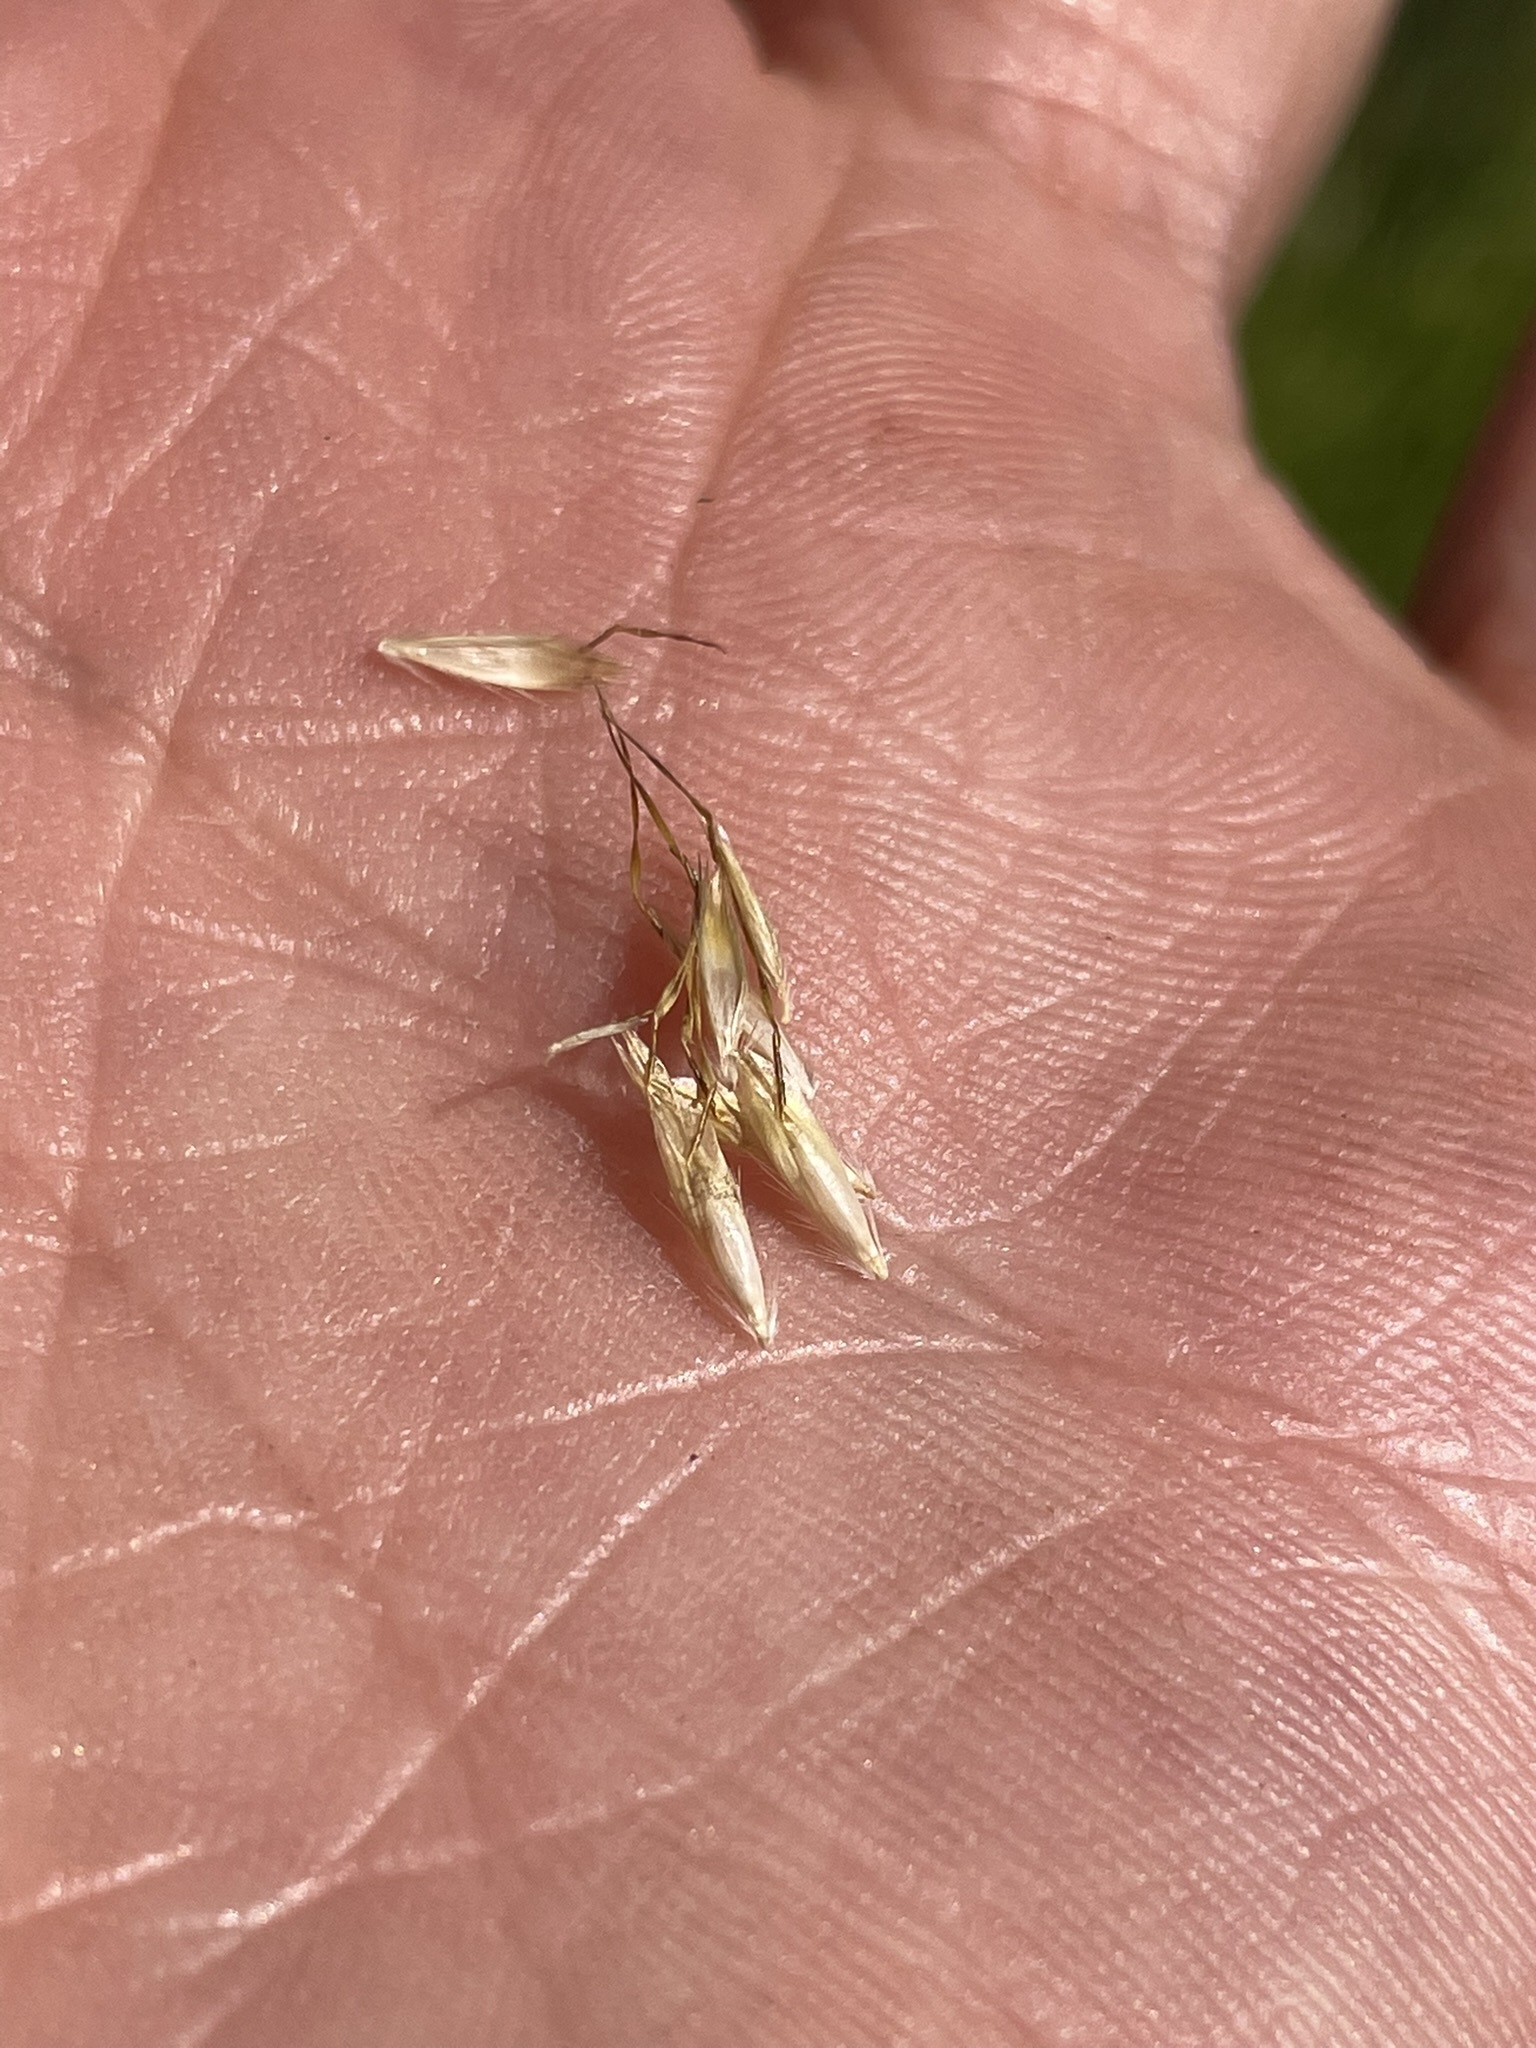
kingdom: Plantae
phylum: Tracheophyta
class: Liliopsida
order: Poales
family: Poaceae
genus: Danthonia
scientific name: Danthonia intermedia
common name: Intermediate oat grass
